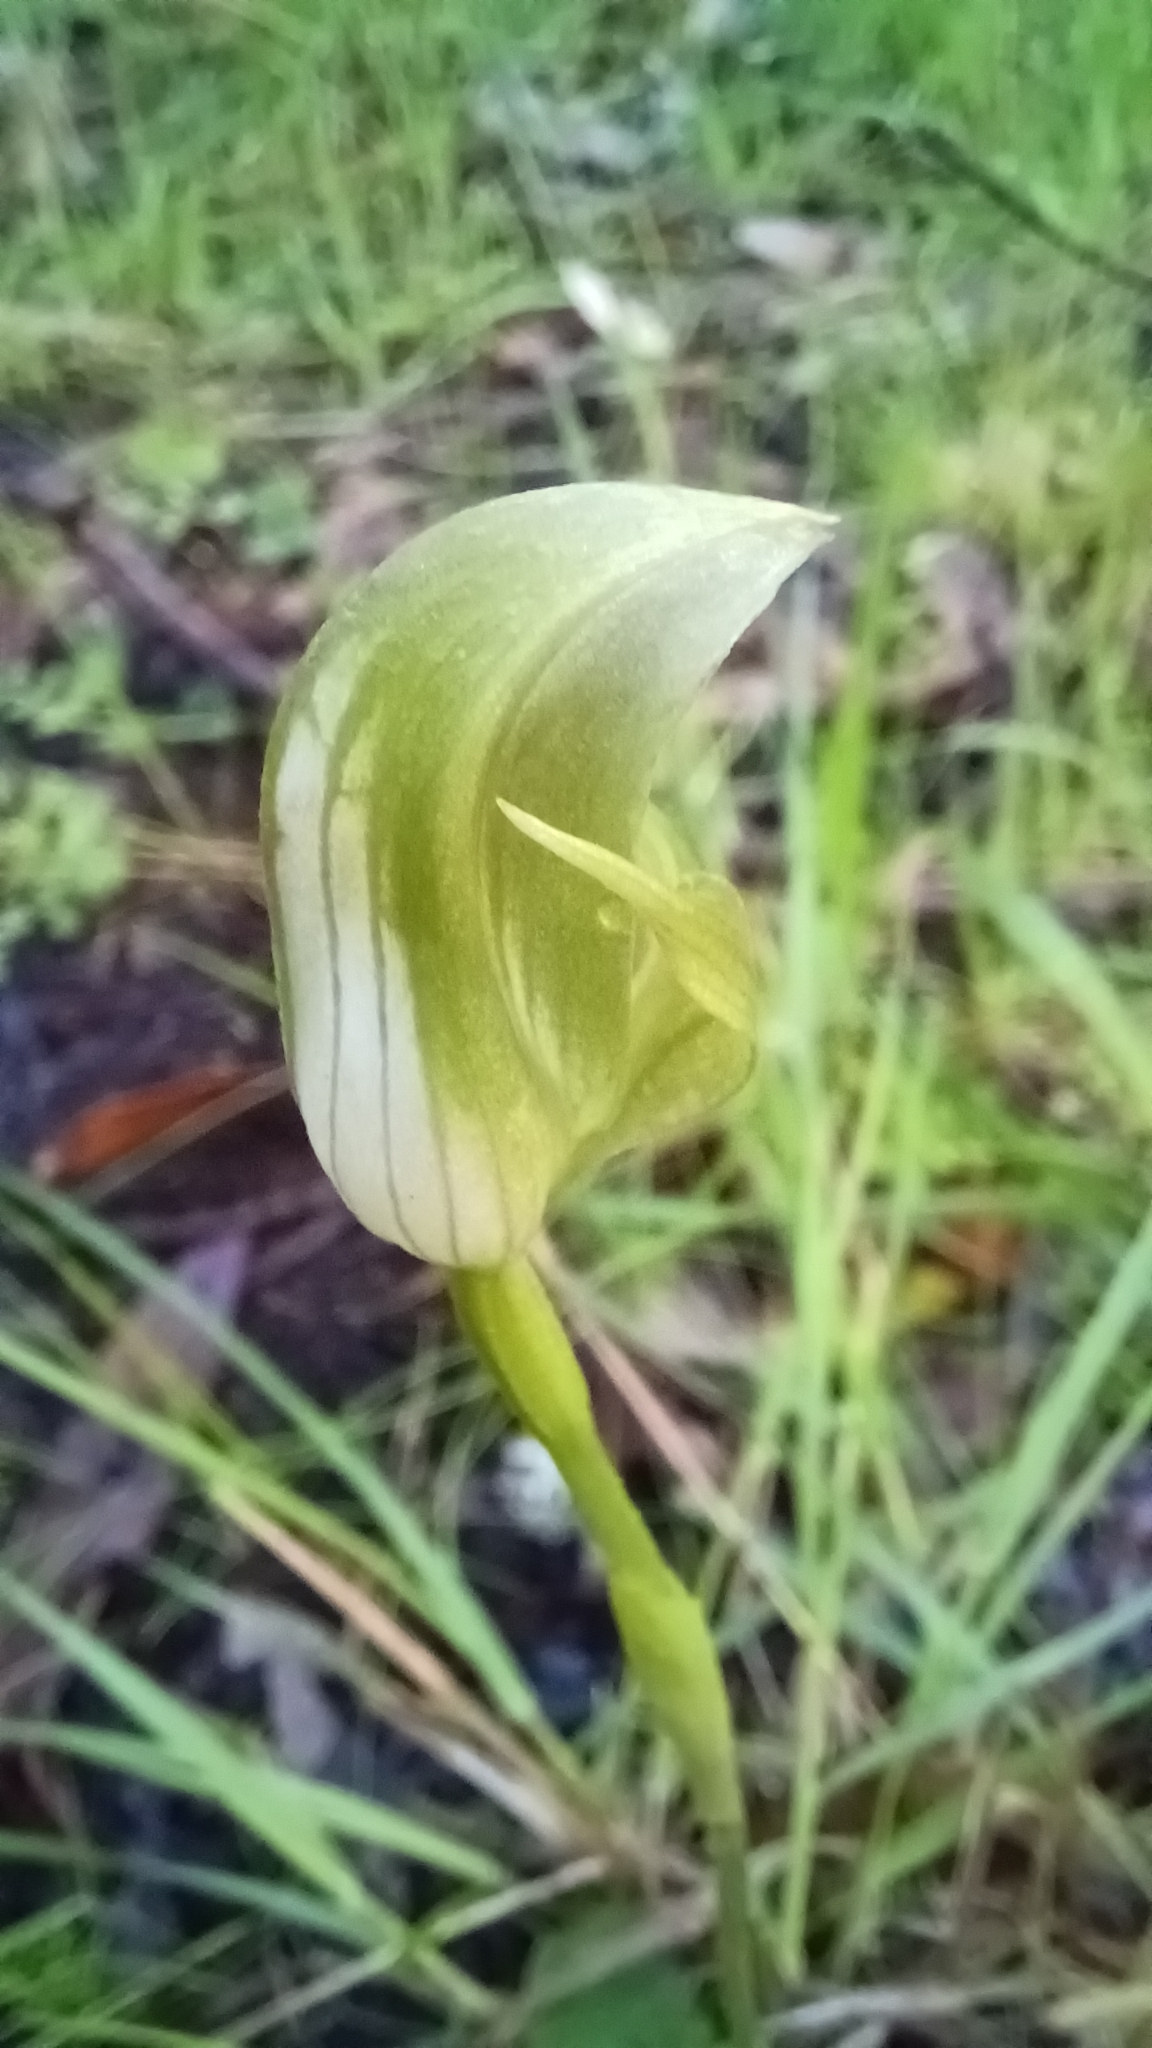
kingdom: Plantae
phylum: Tracheophyta
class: Liliopsida
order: Asparagales
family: Orchidaceae
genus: Pterostylis
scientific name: Pterostylis curta
